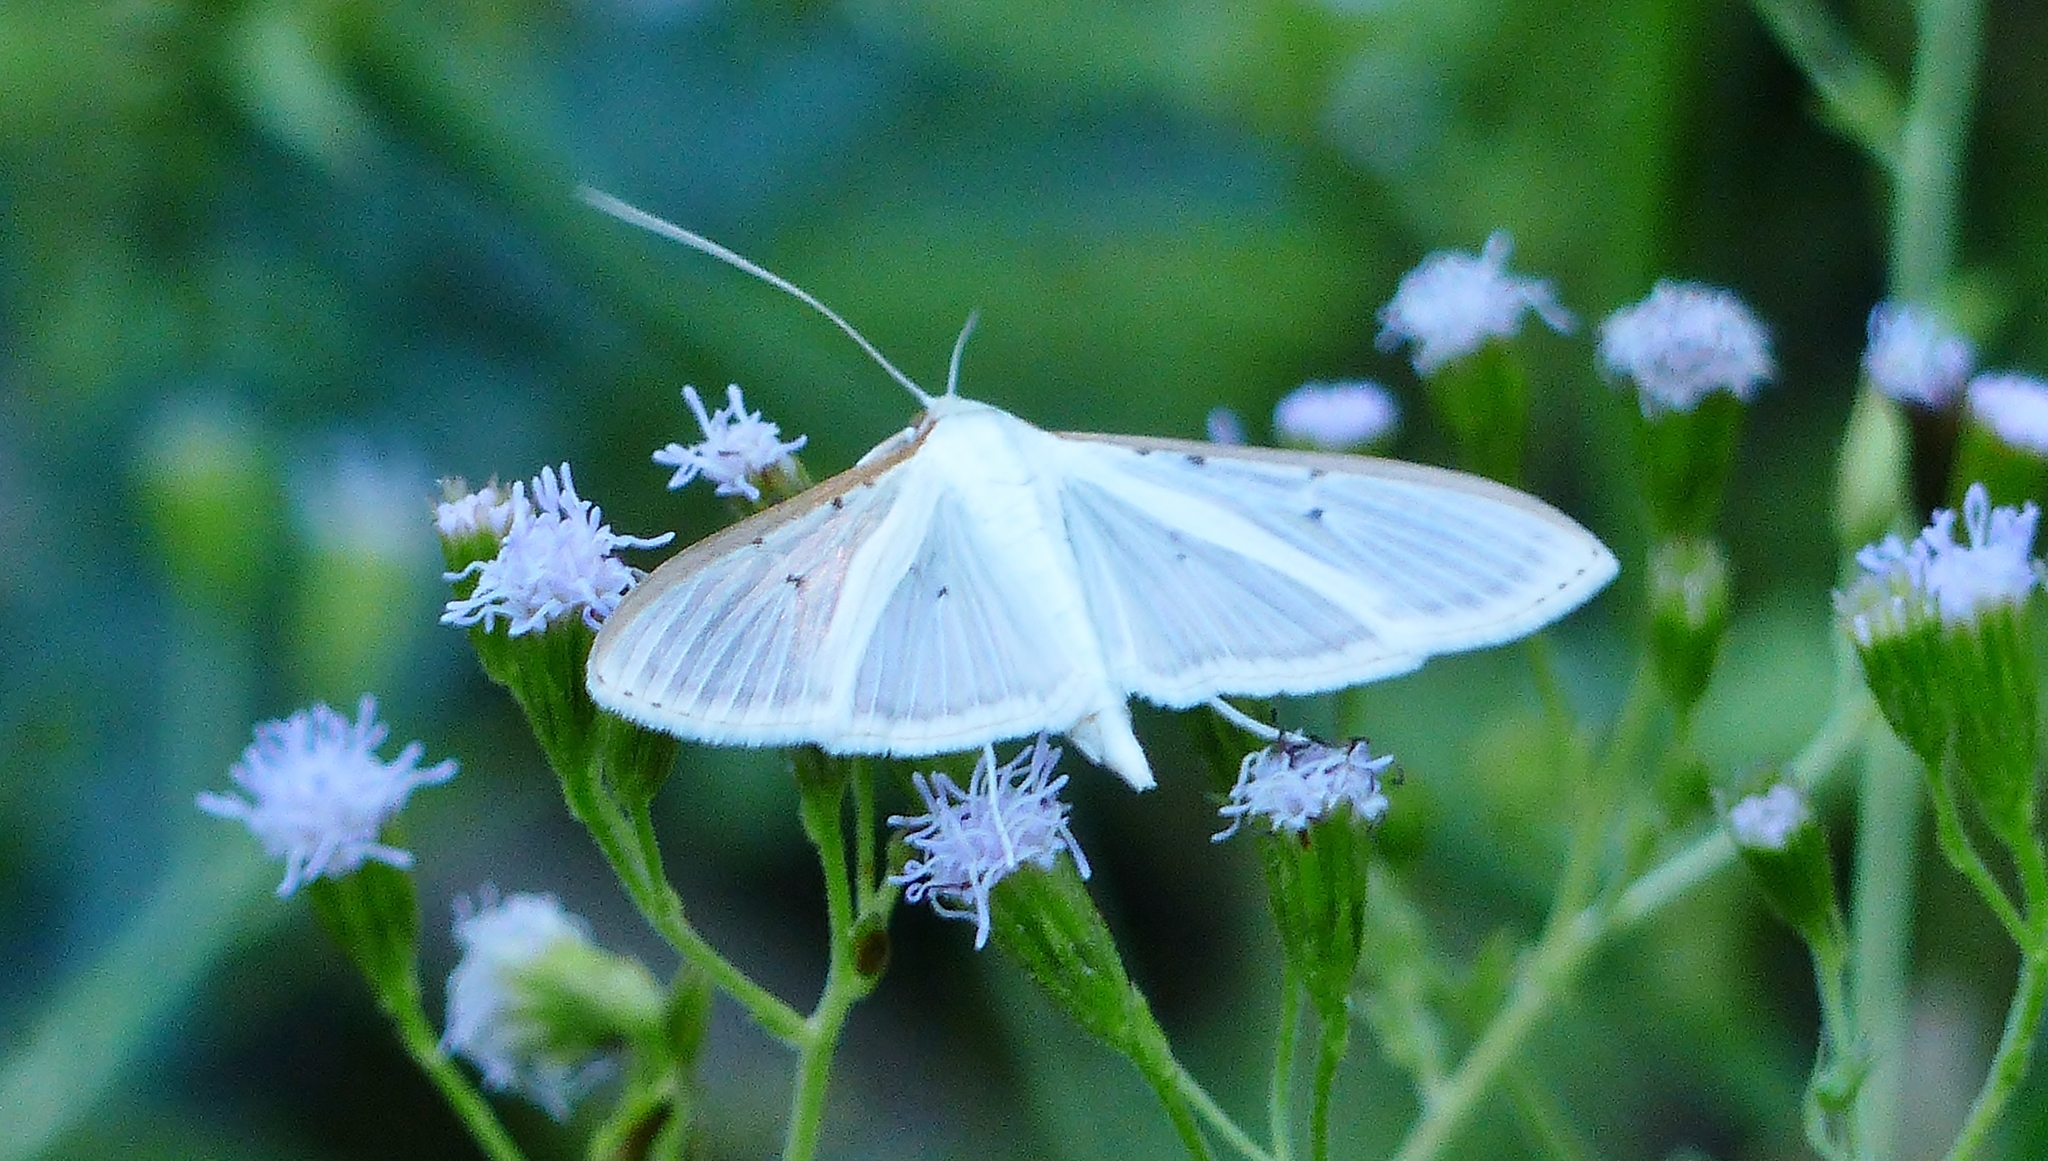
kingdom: Animalia
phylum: Arthropoda
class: Insecta
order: Lepidoptera
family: Crambidae
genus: Palpita
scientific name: Palpita quadristigmalis
